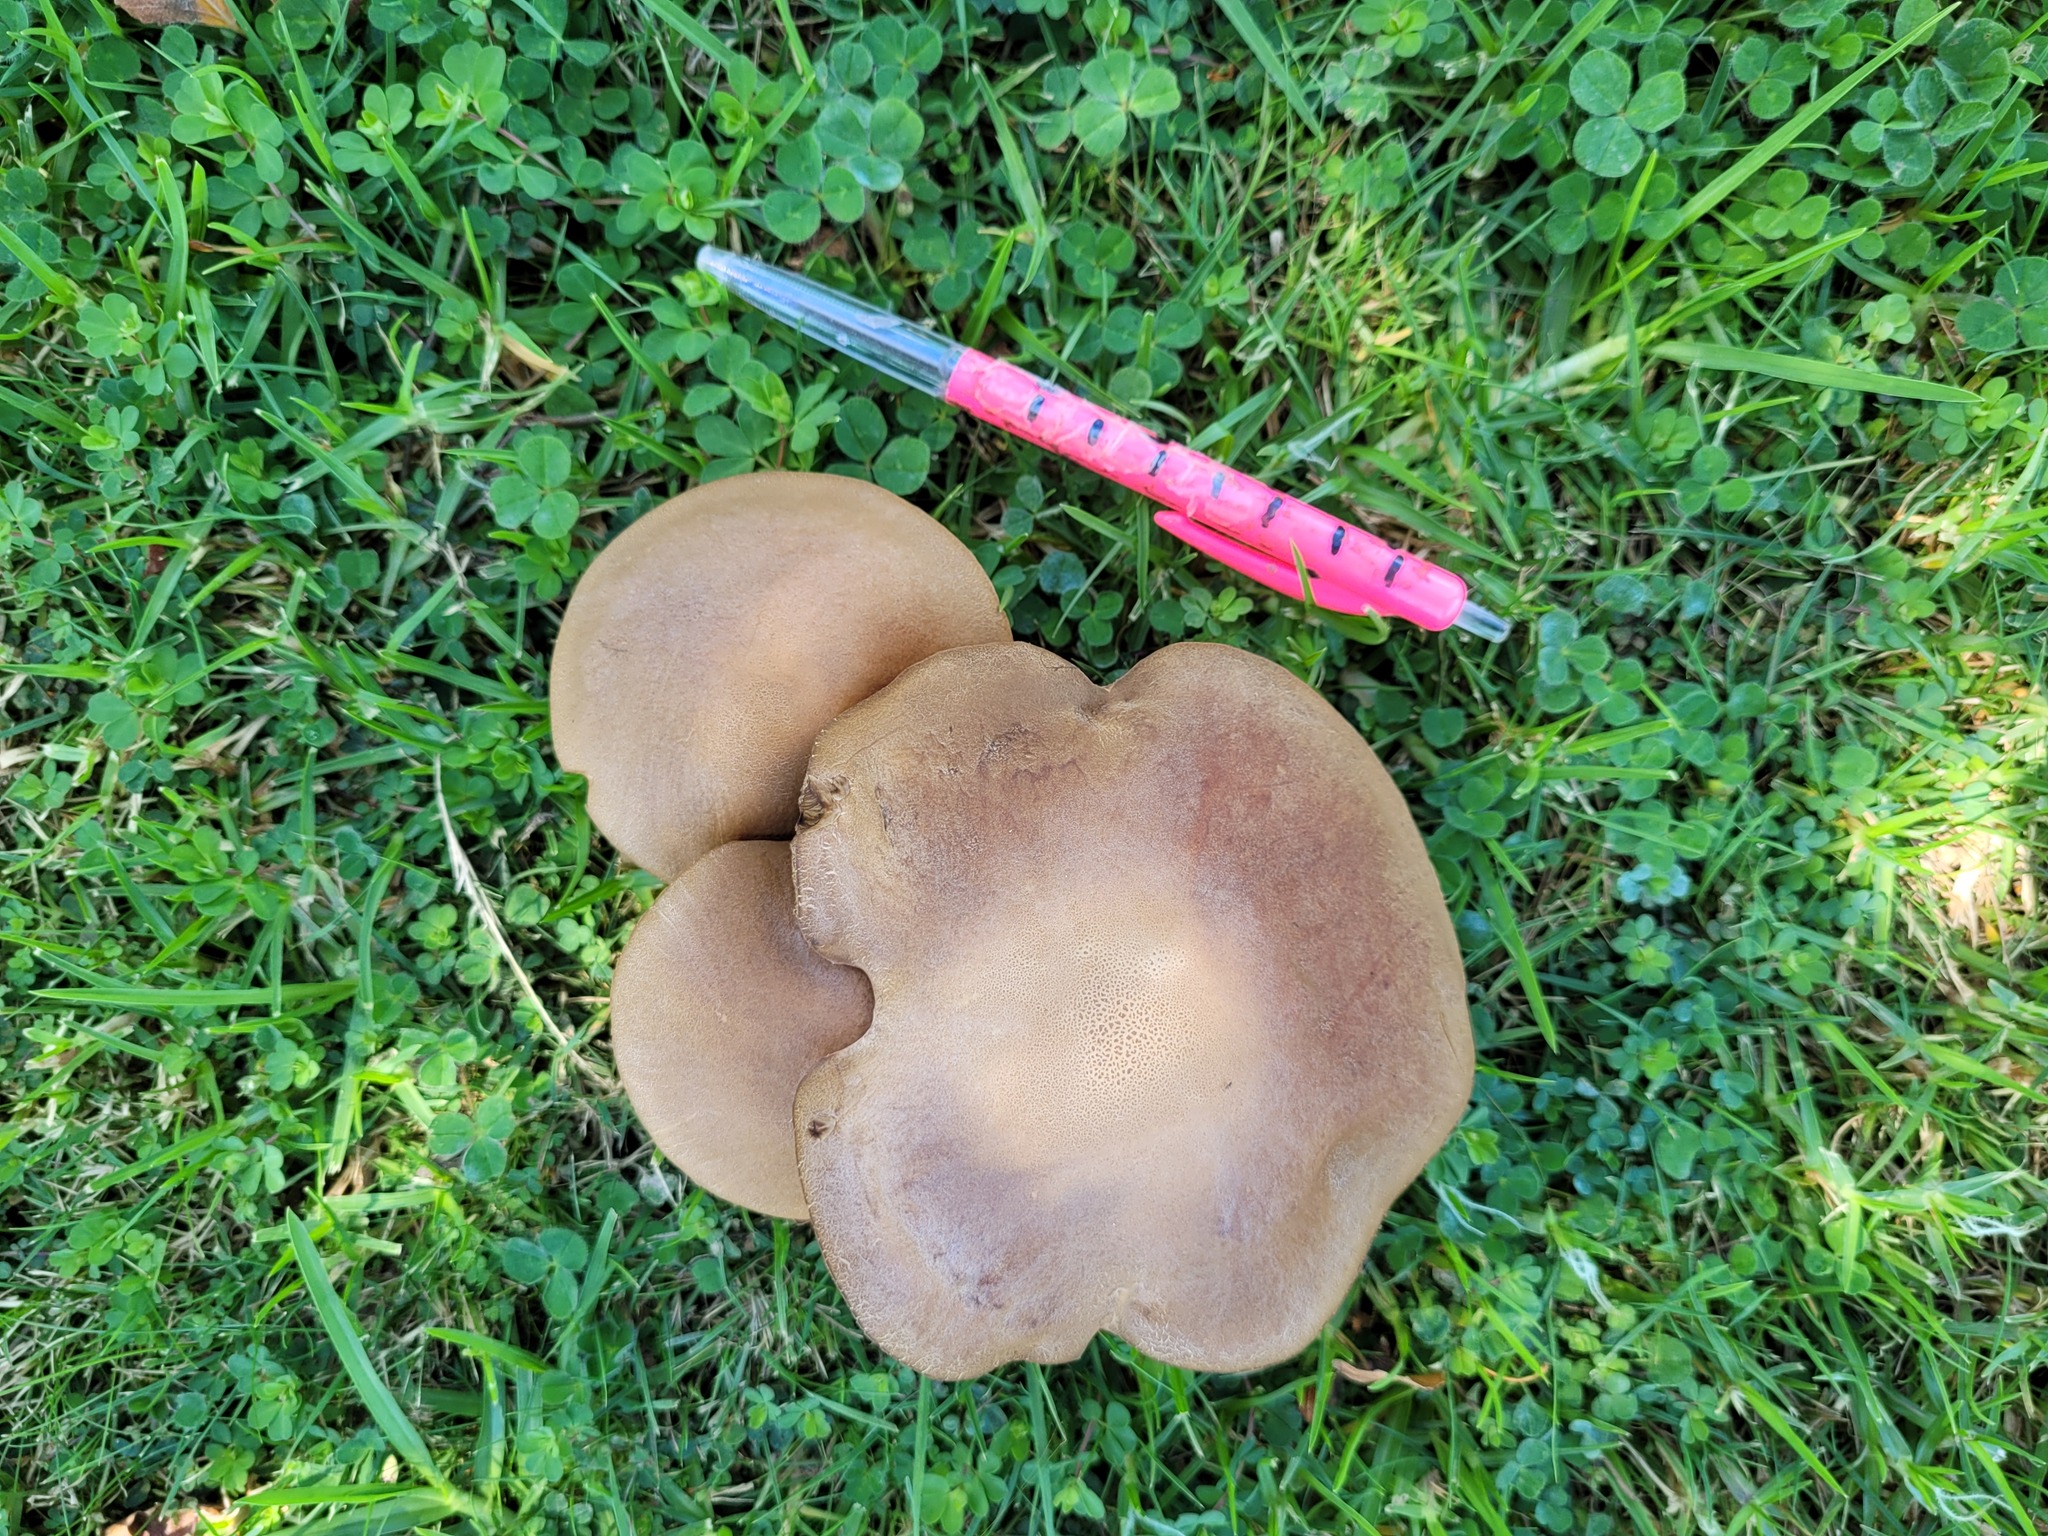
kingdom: Fungi
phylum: Basidiomycota
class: Agaricomycetes
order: Boletales
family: Boletaceae
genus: Leccinum
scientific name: Leccinum scabrum
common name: Blushing bolete
